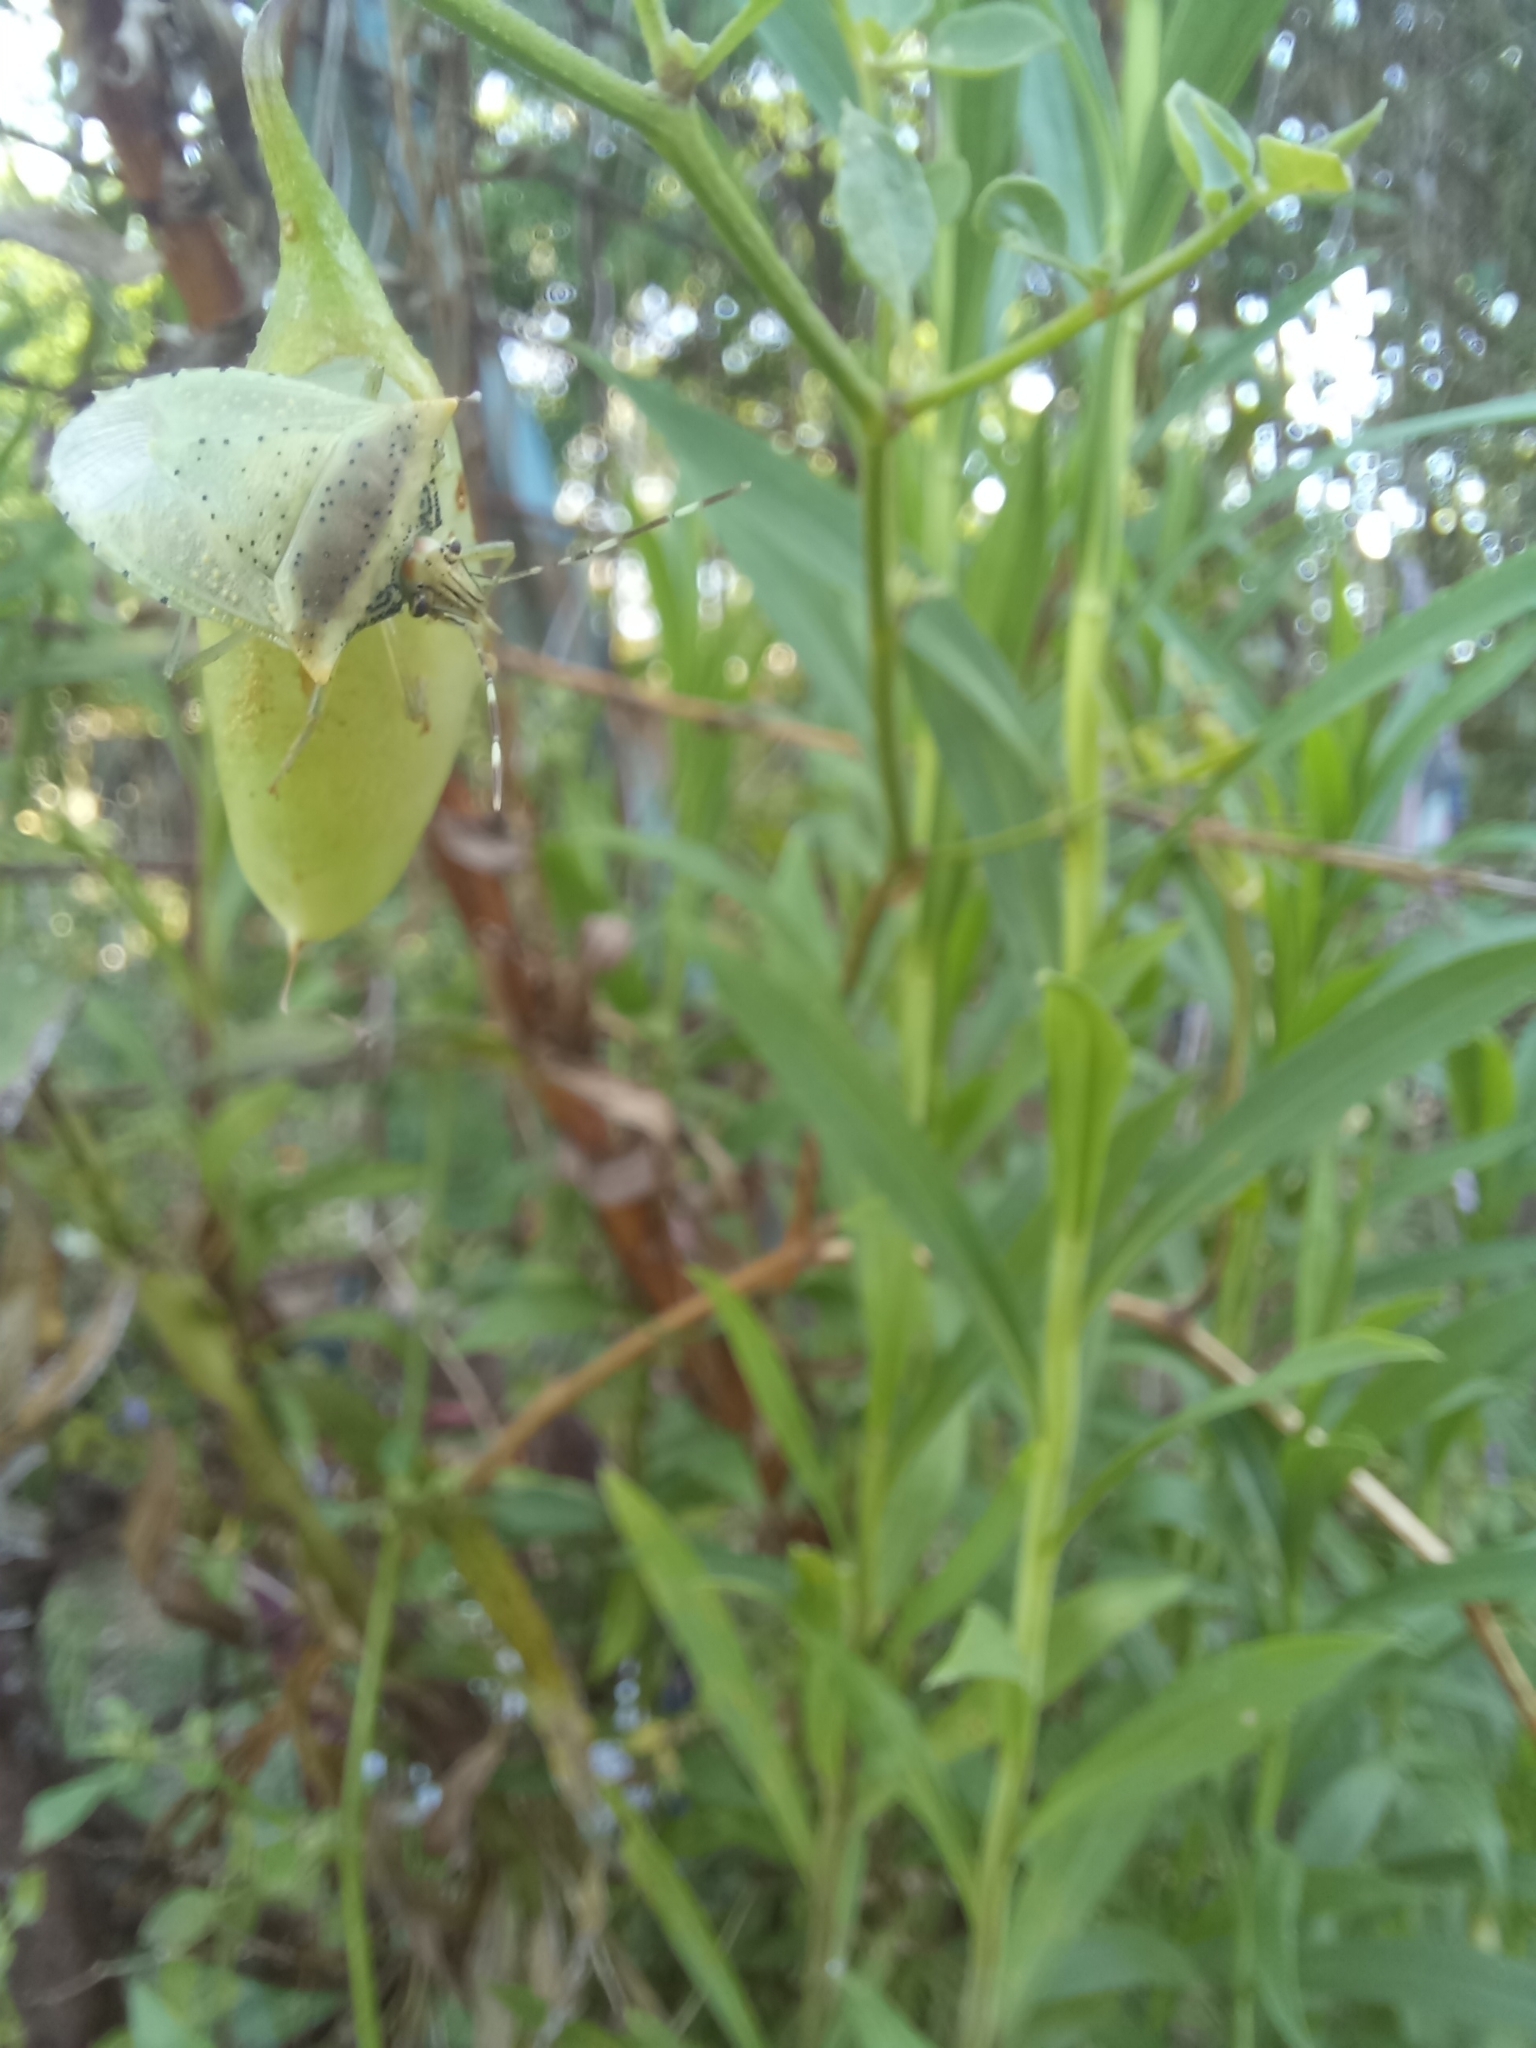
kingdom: Animalia
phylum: Arthropoda
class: Insecta
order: Hemiptera
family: Pentatomidae
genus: Arvelius
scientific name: Arvelius albopunctatus
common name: Tomato stink bug
